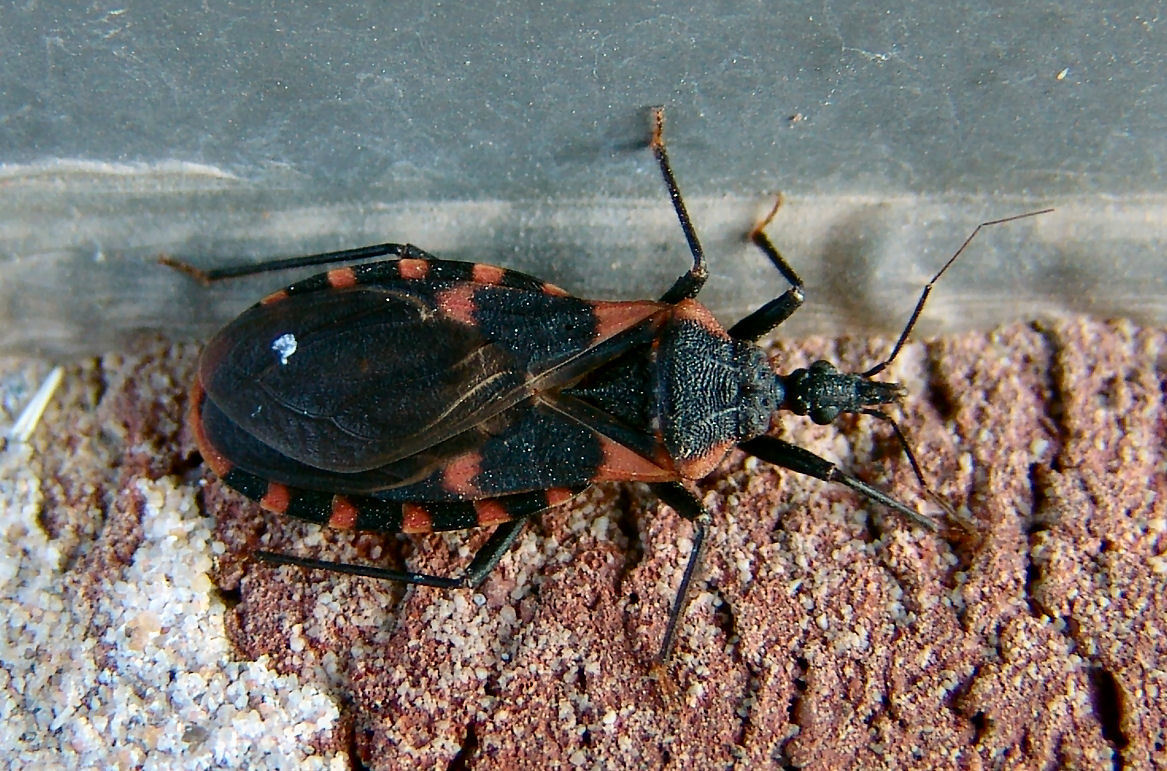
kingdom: Animalia
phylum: Arthropoda
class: Insecta
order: Hemiptera
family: Reduviidae
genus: Triatoma
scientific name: Triatoma sanguisuga
